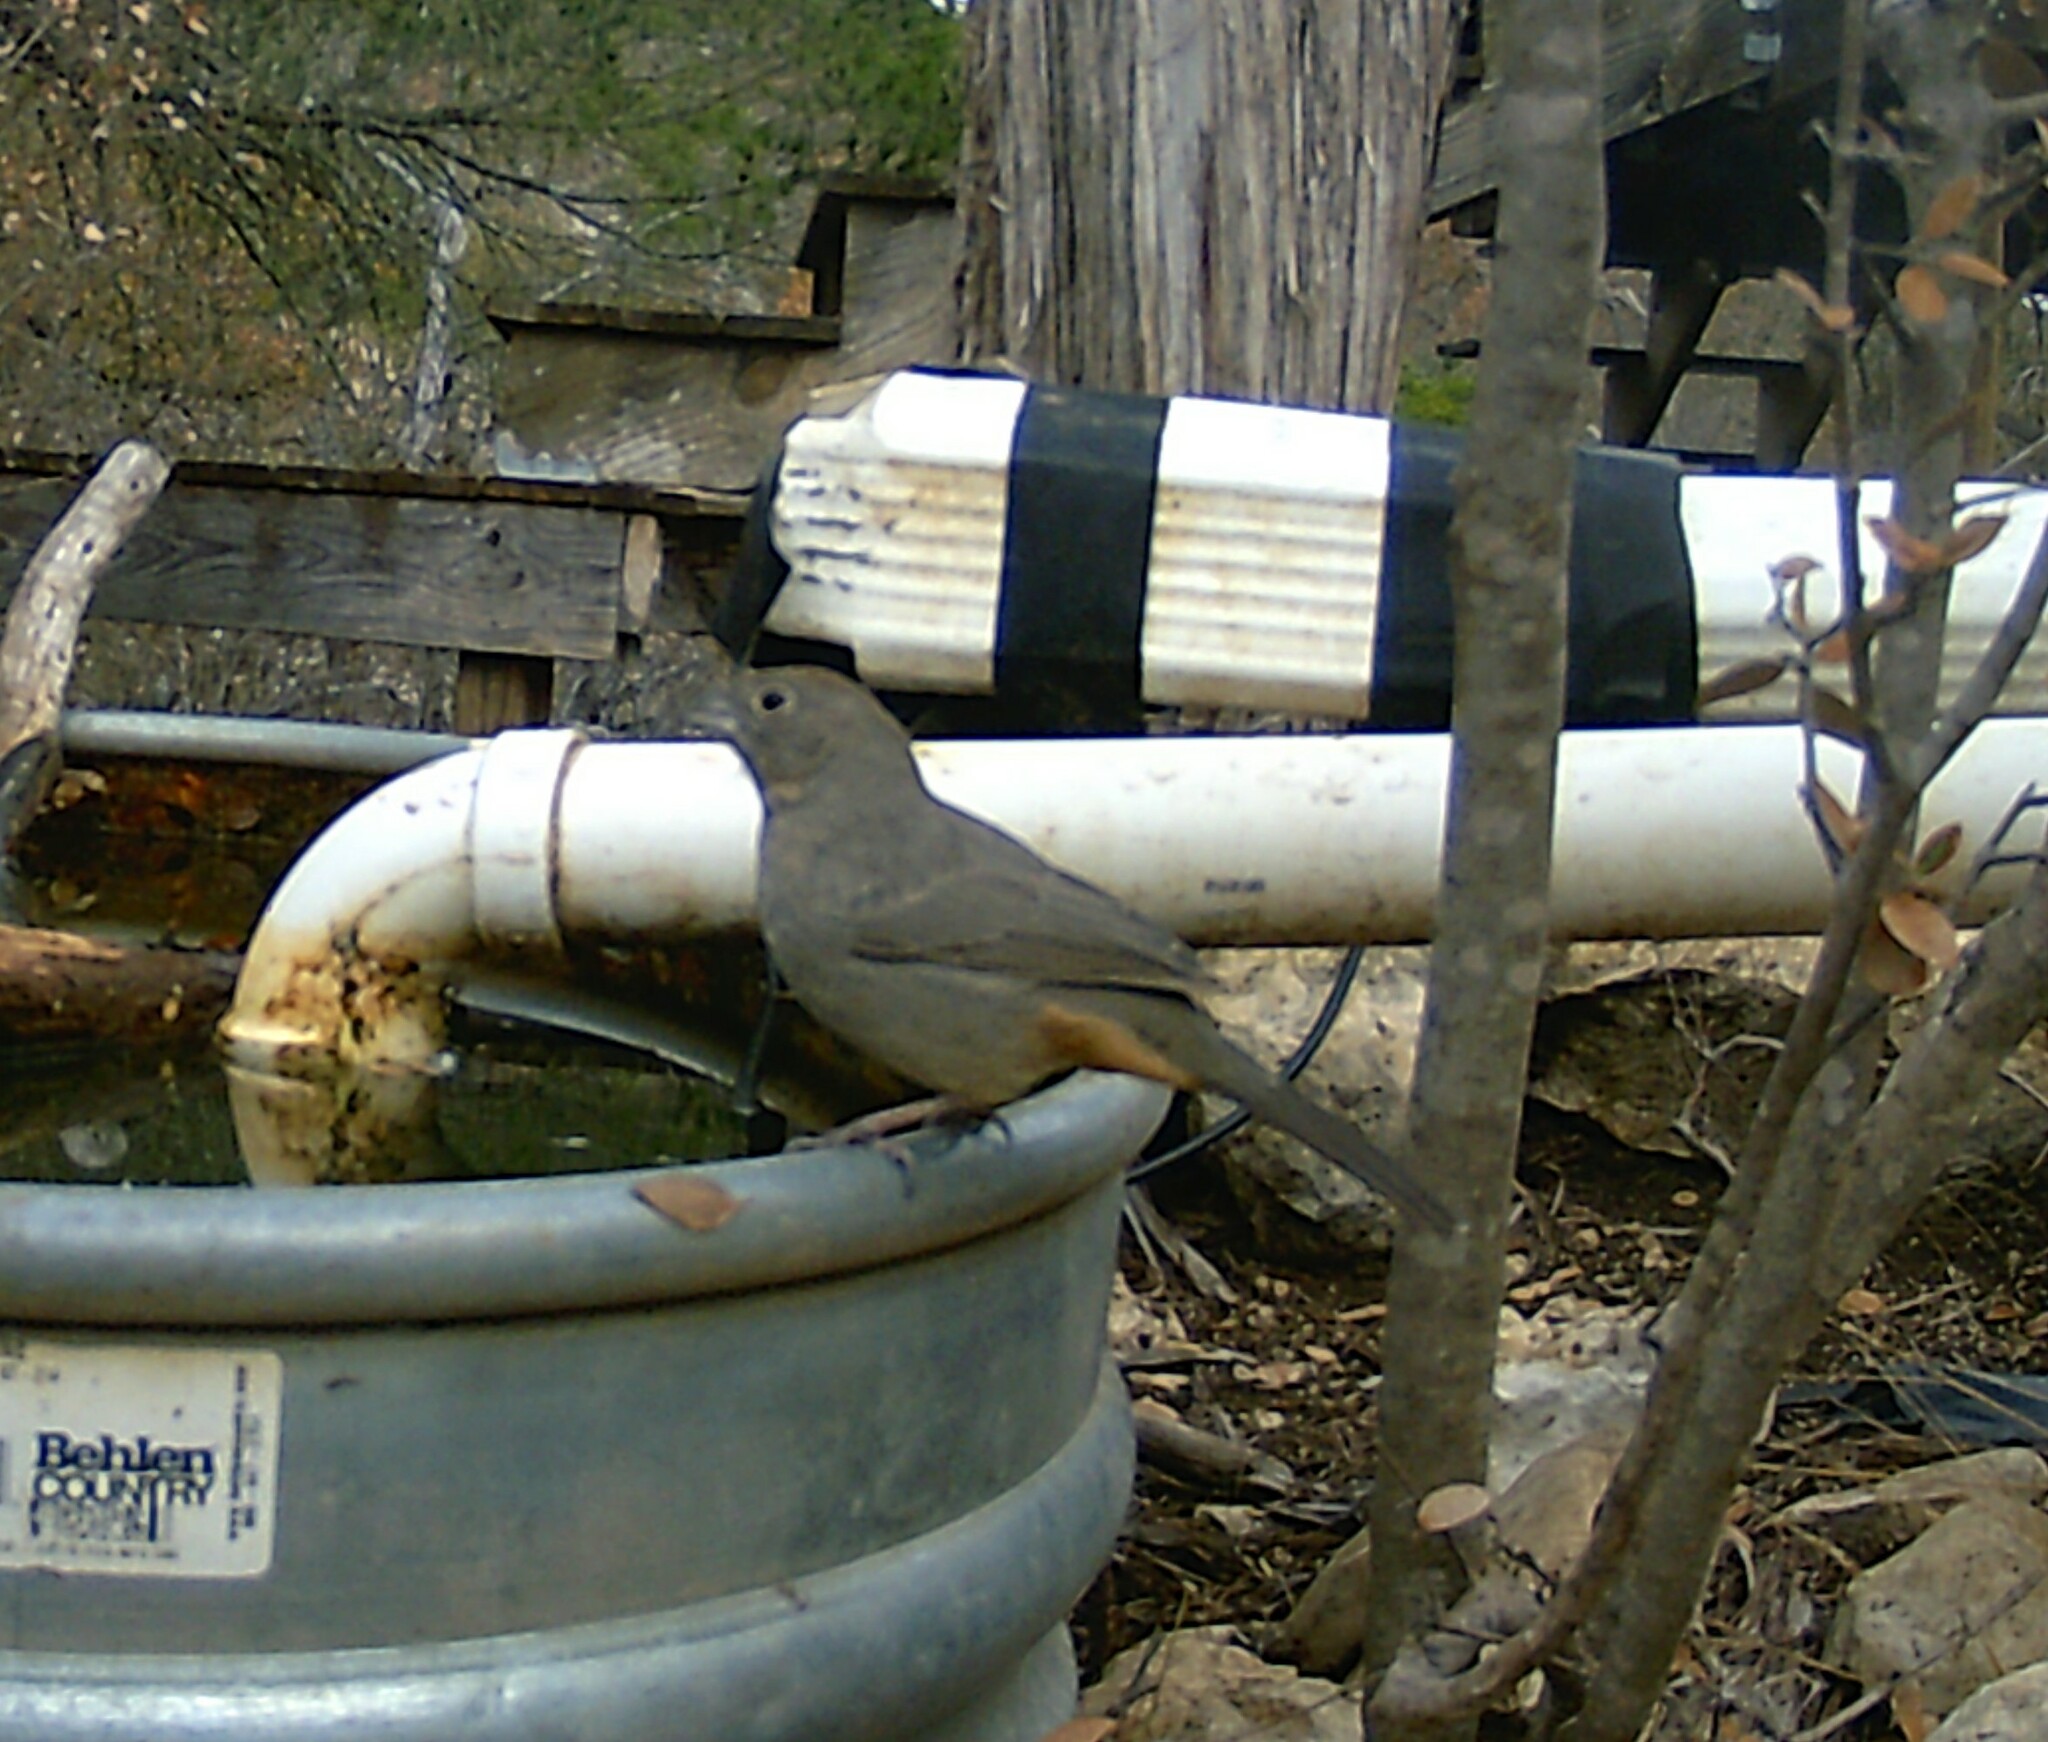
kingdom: Animalia
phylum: Chordata
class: Aves
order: Passeriformes
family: Passerellidae
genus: Melozone
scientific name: Melozone fusca
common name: Canyon towhee
